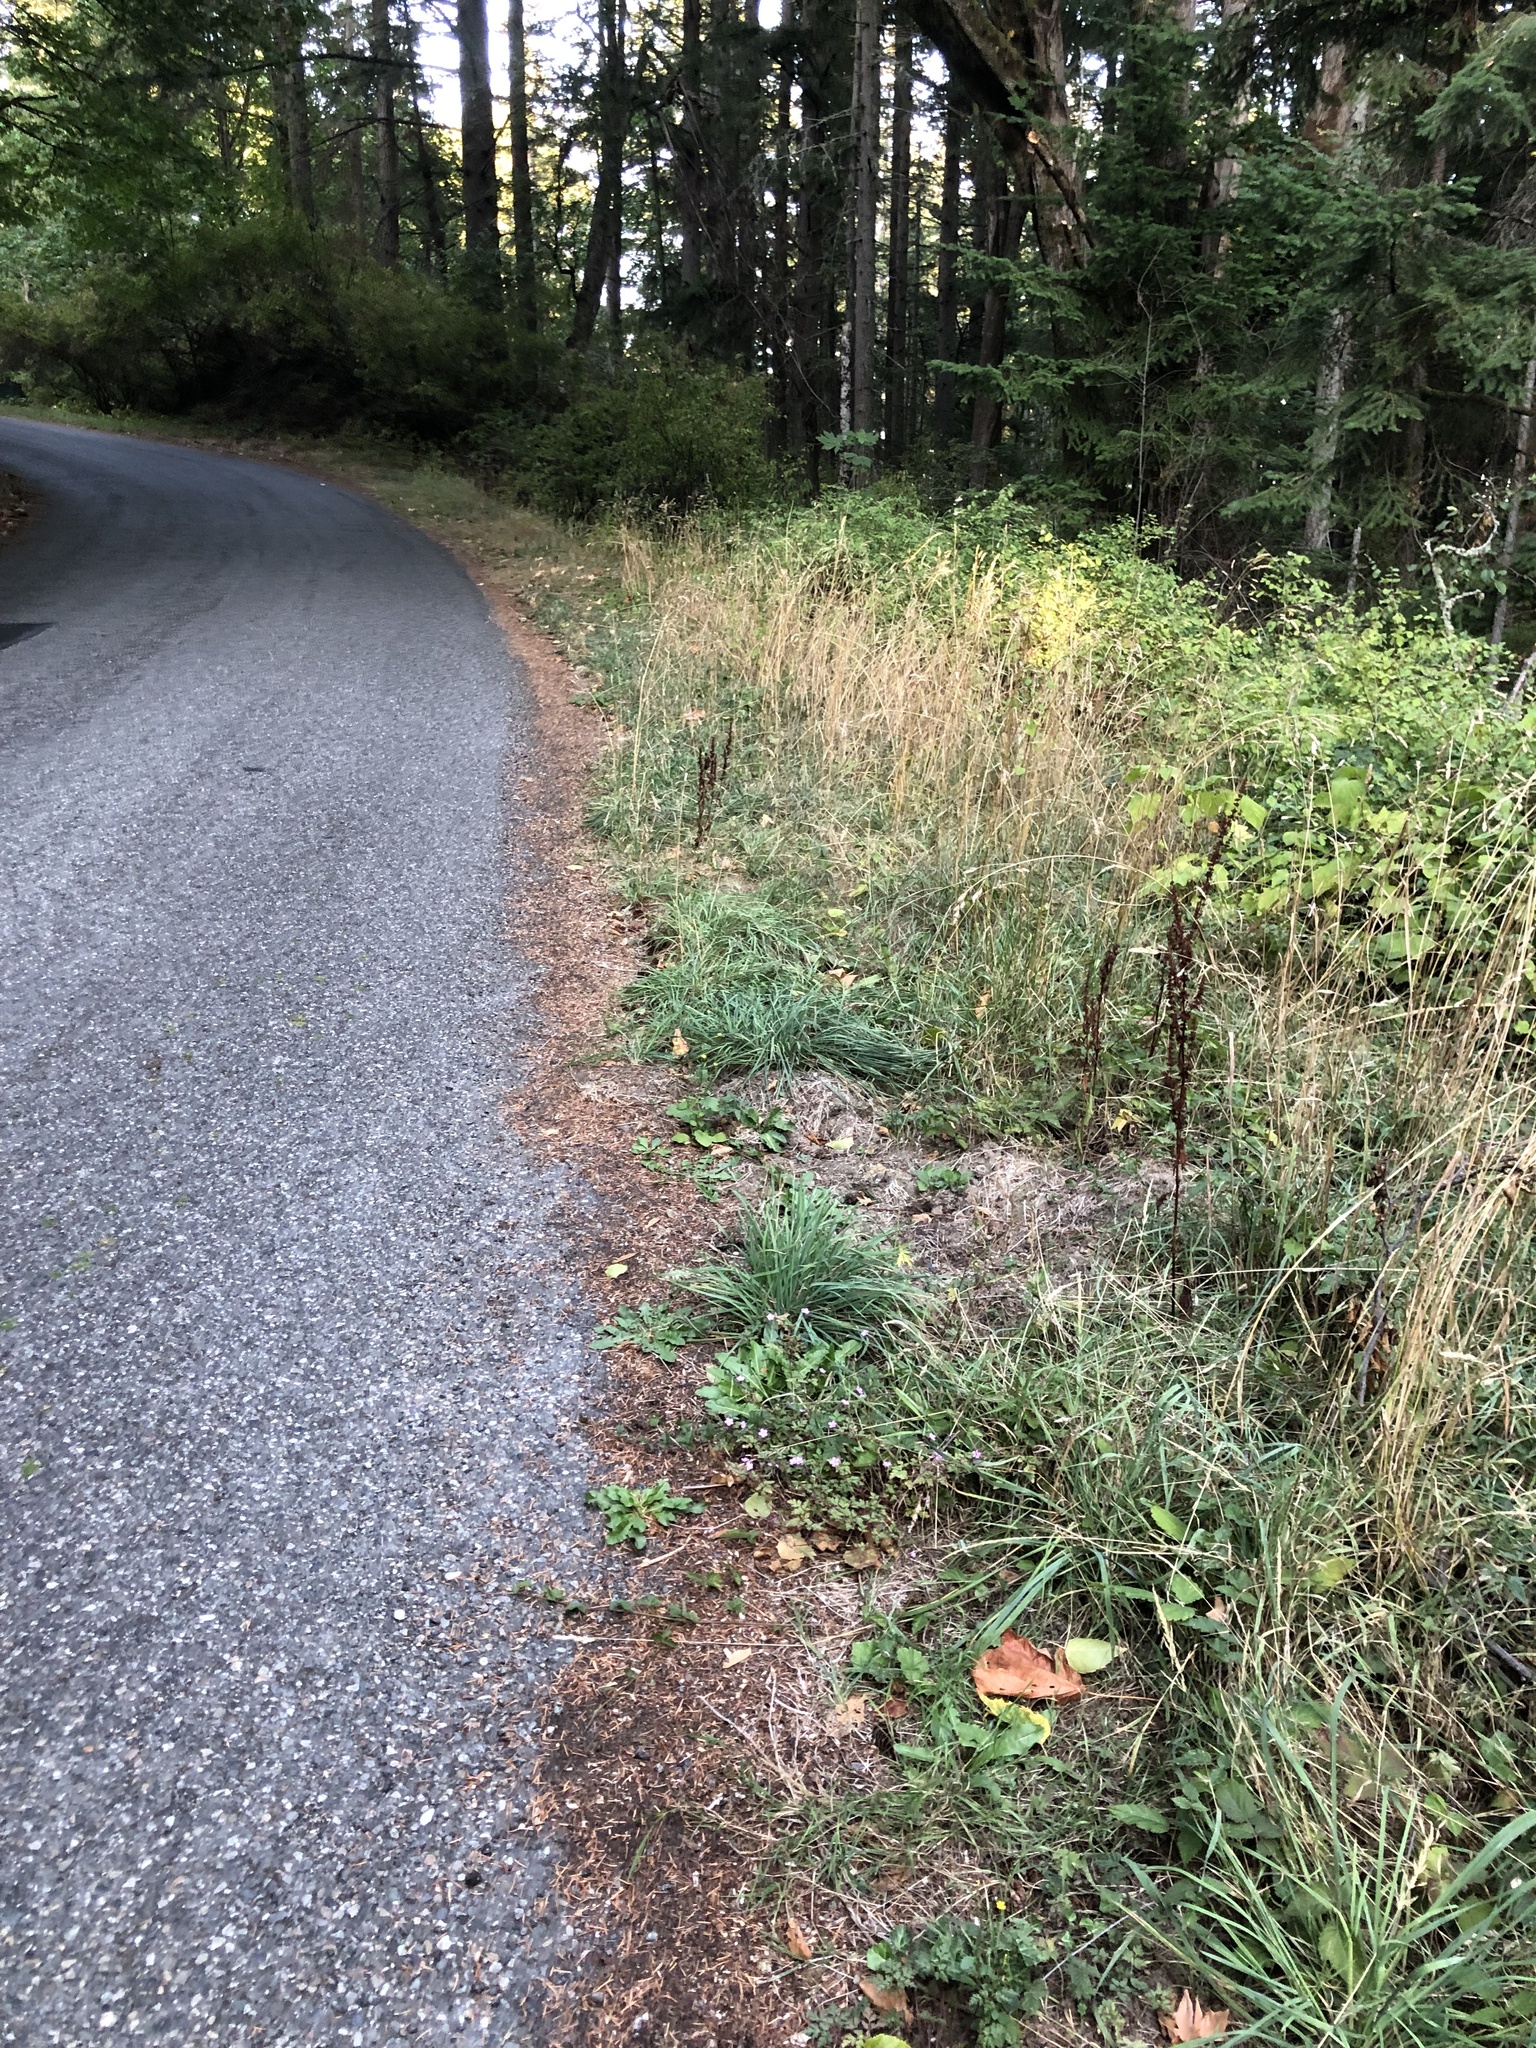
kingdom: Plantae
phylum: Tracheophyta
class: Magnoliopsida
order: Geraniales
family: Geraniaceae
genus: Geranium
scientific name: Geranium robertianum
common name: Herb-robert
